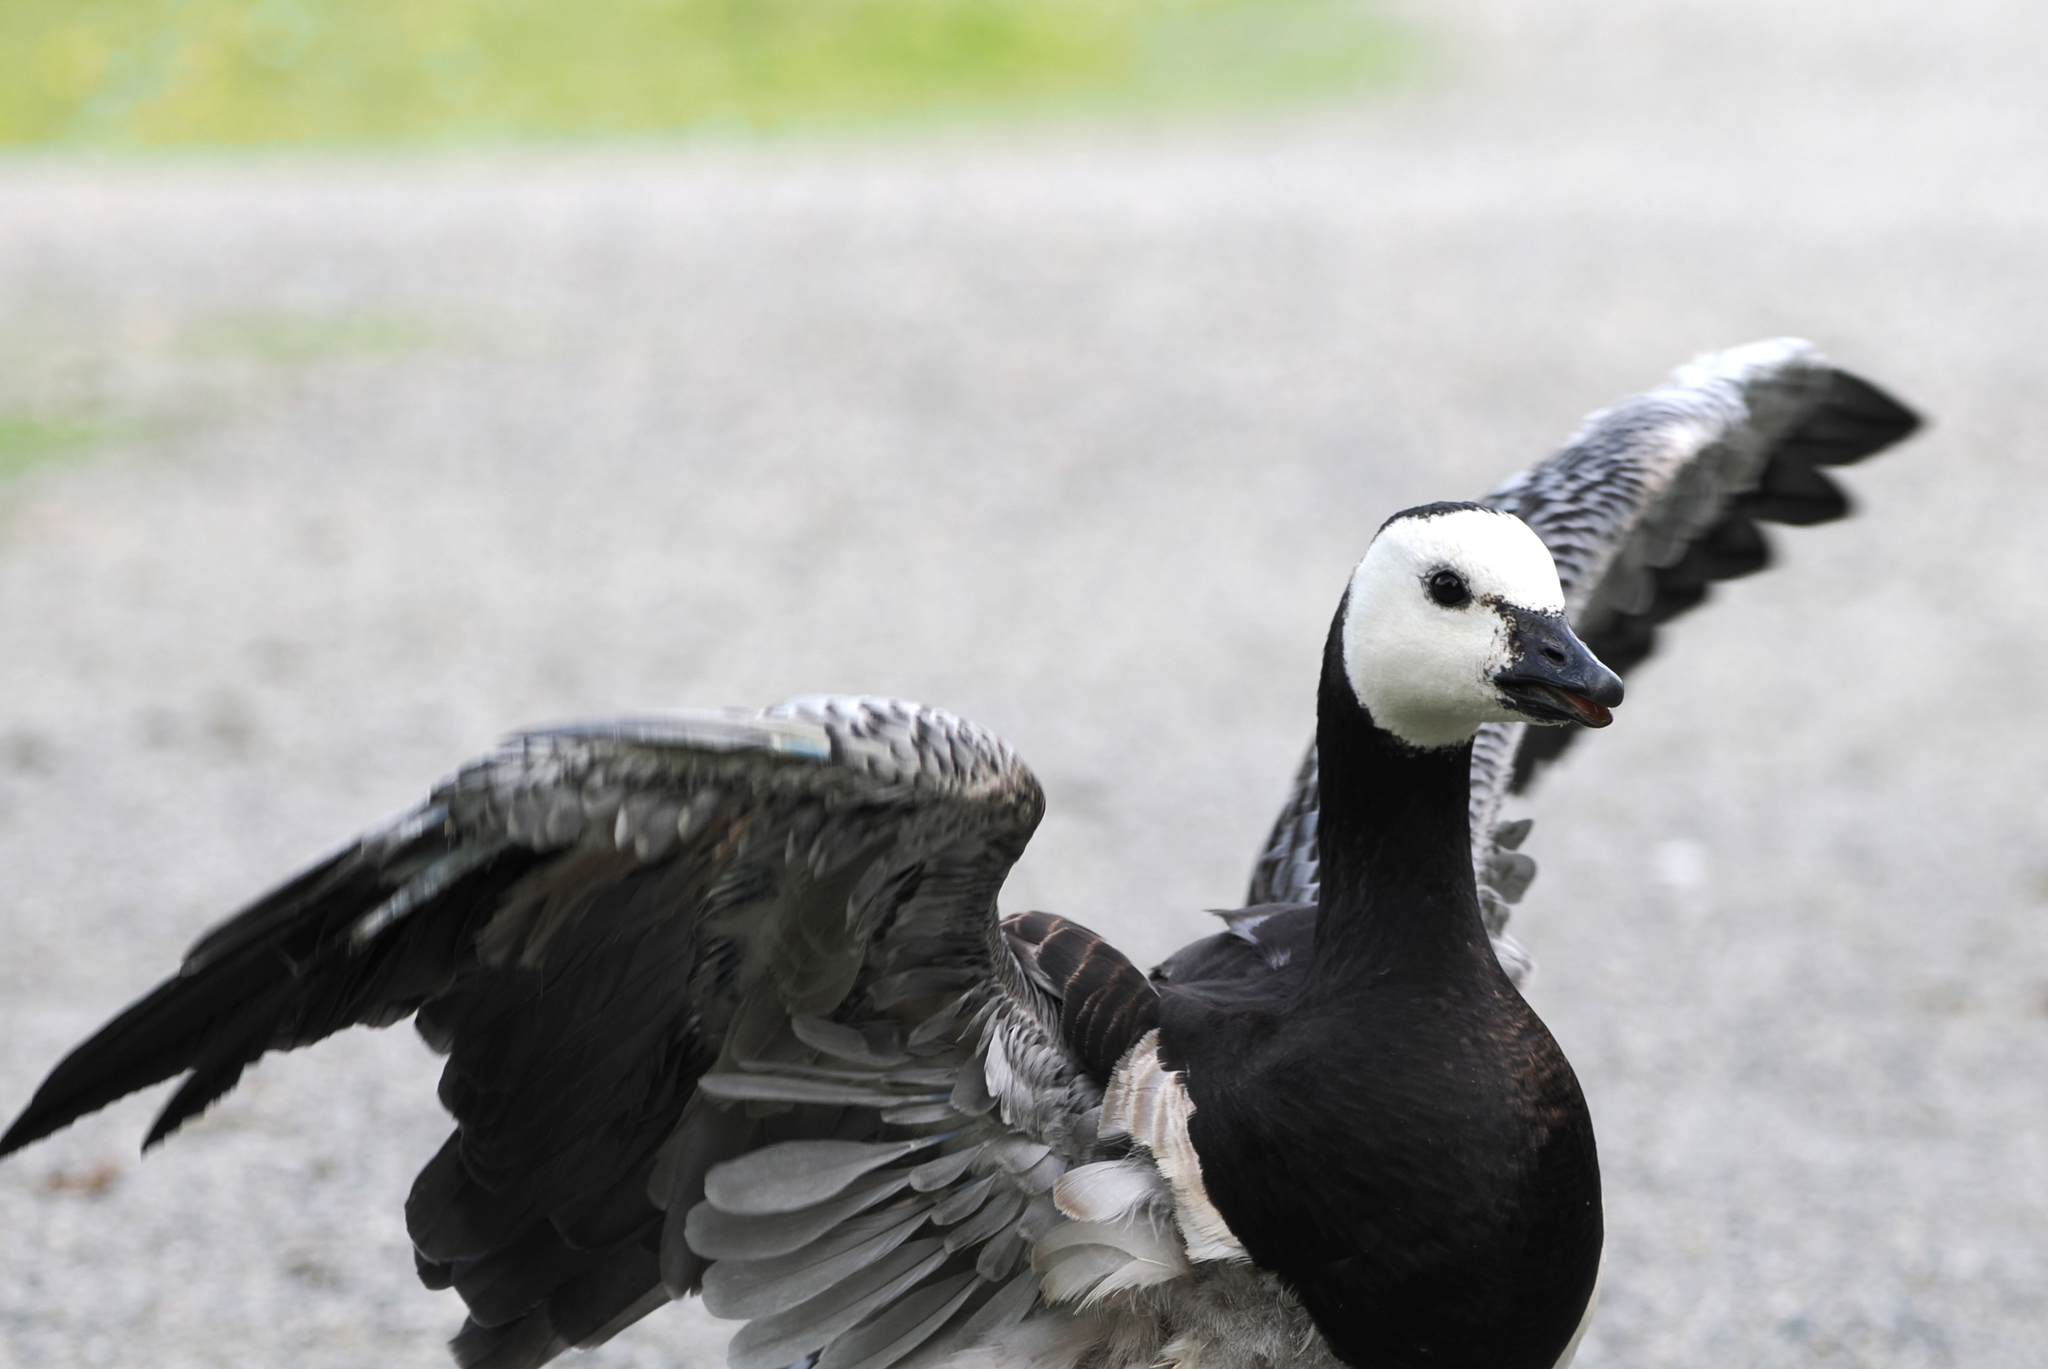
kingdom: Animalia
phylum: Chordata
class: Aves
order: Anseriformes
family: Anatidae
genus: Branta
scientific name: Branta leucopsis
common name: Barnacle goose
